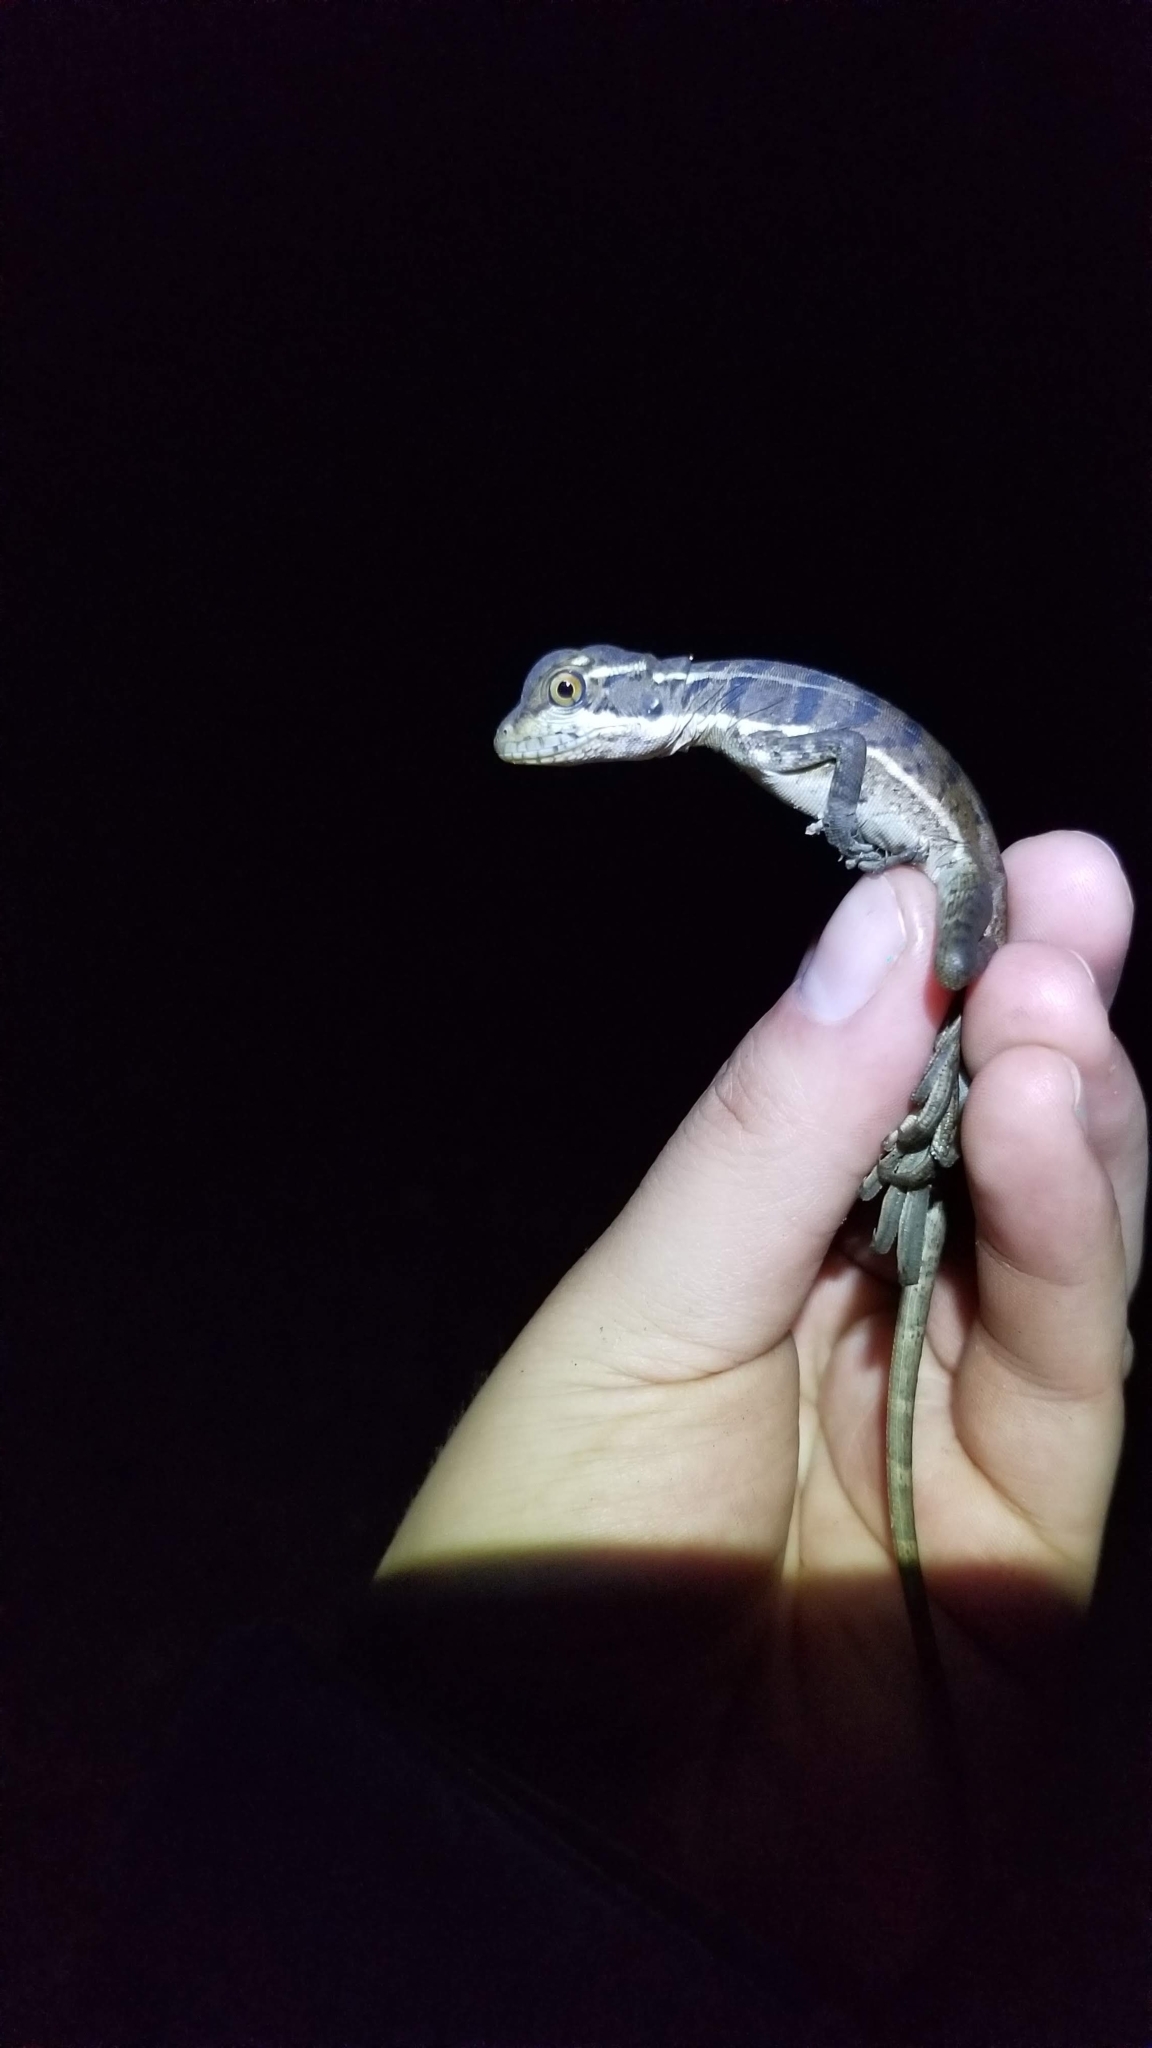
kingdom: Animalia
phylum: Chordata
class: Squamata
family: Corytophanidae
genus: Basiliscus
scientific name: Basiliscus basiliscus
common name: Common basilisk
